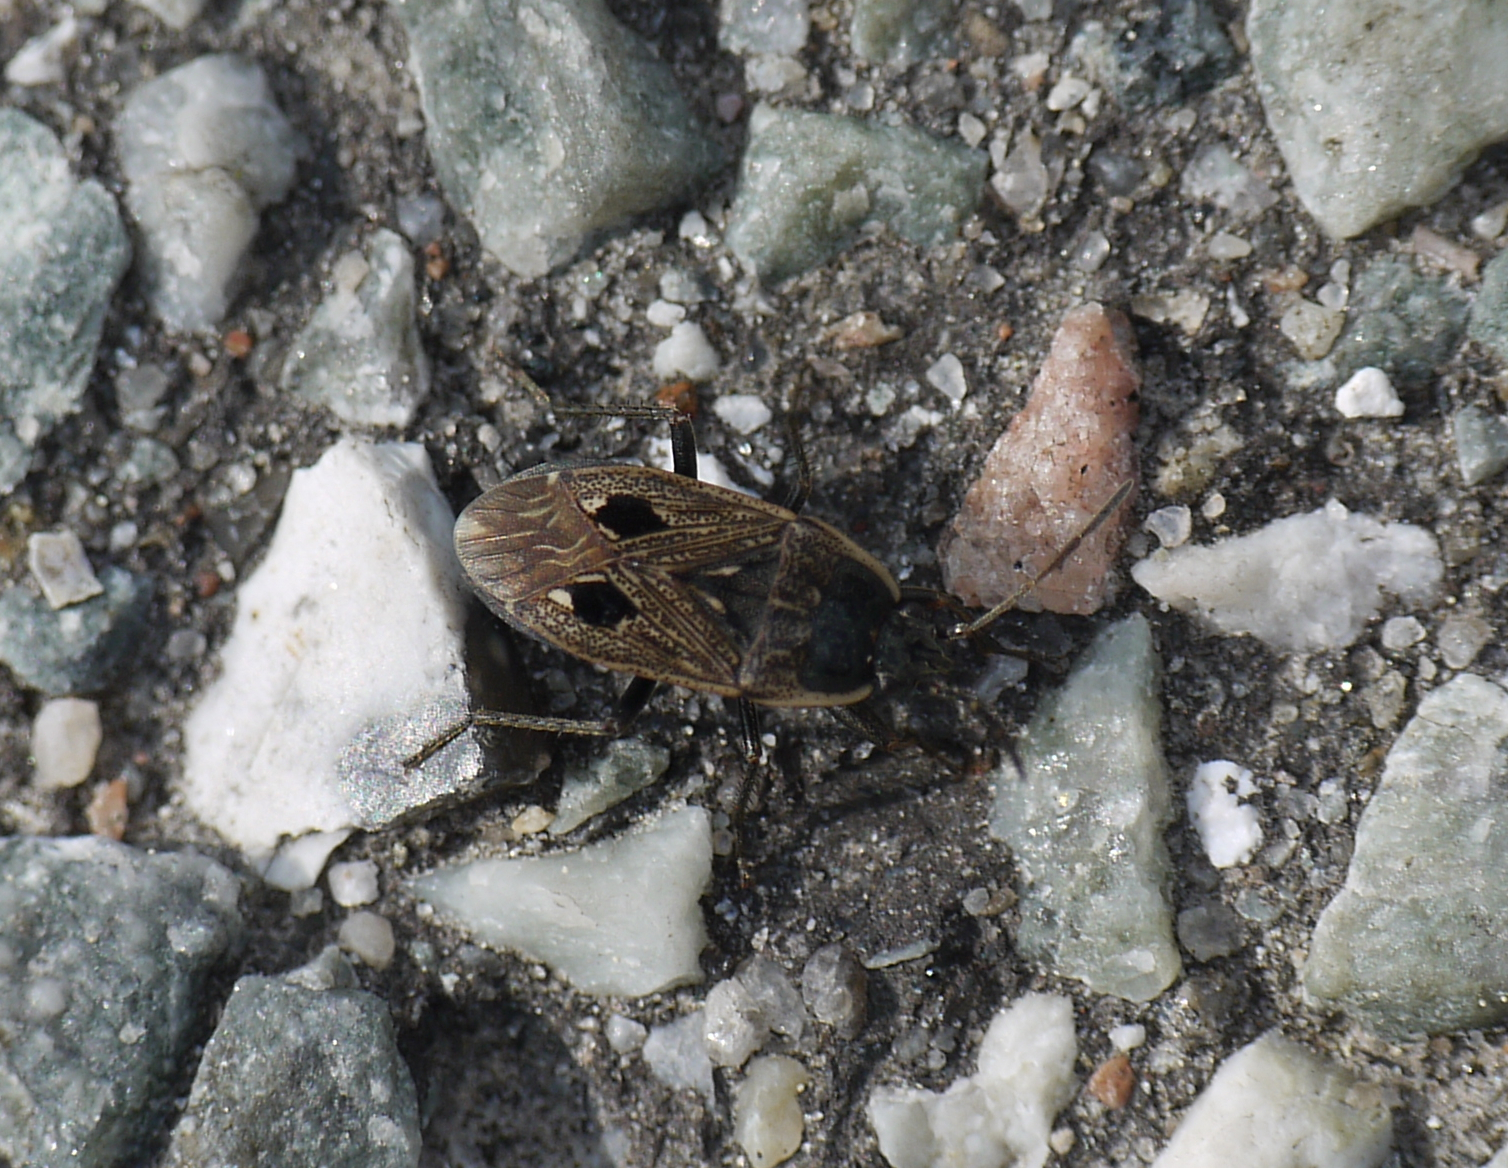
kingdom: Animalia
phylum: Arthropoda
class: Insecta
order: Hemiptera
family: Rhyparochromidae
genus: Graptopeltus
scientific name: Graptopeltus lynceus
